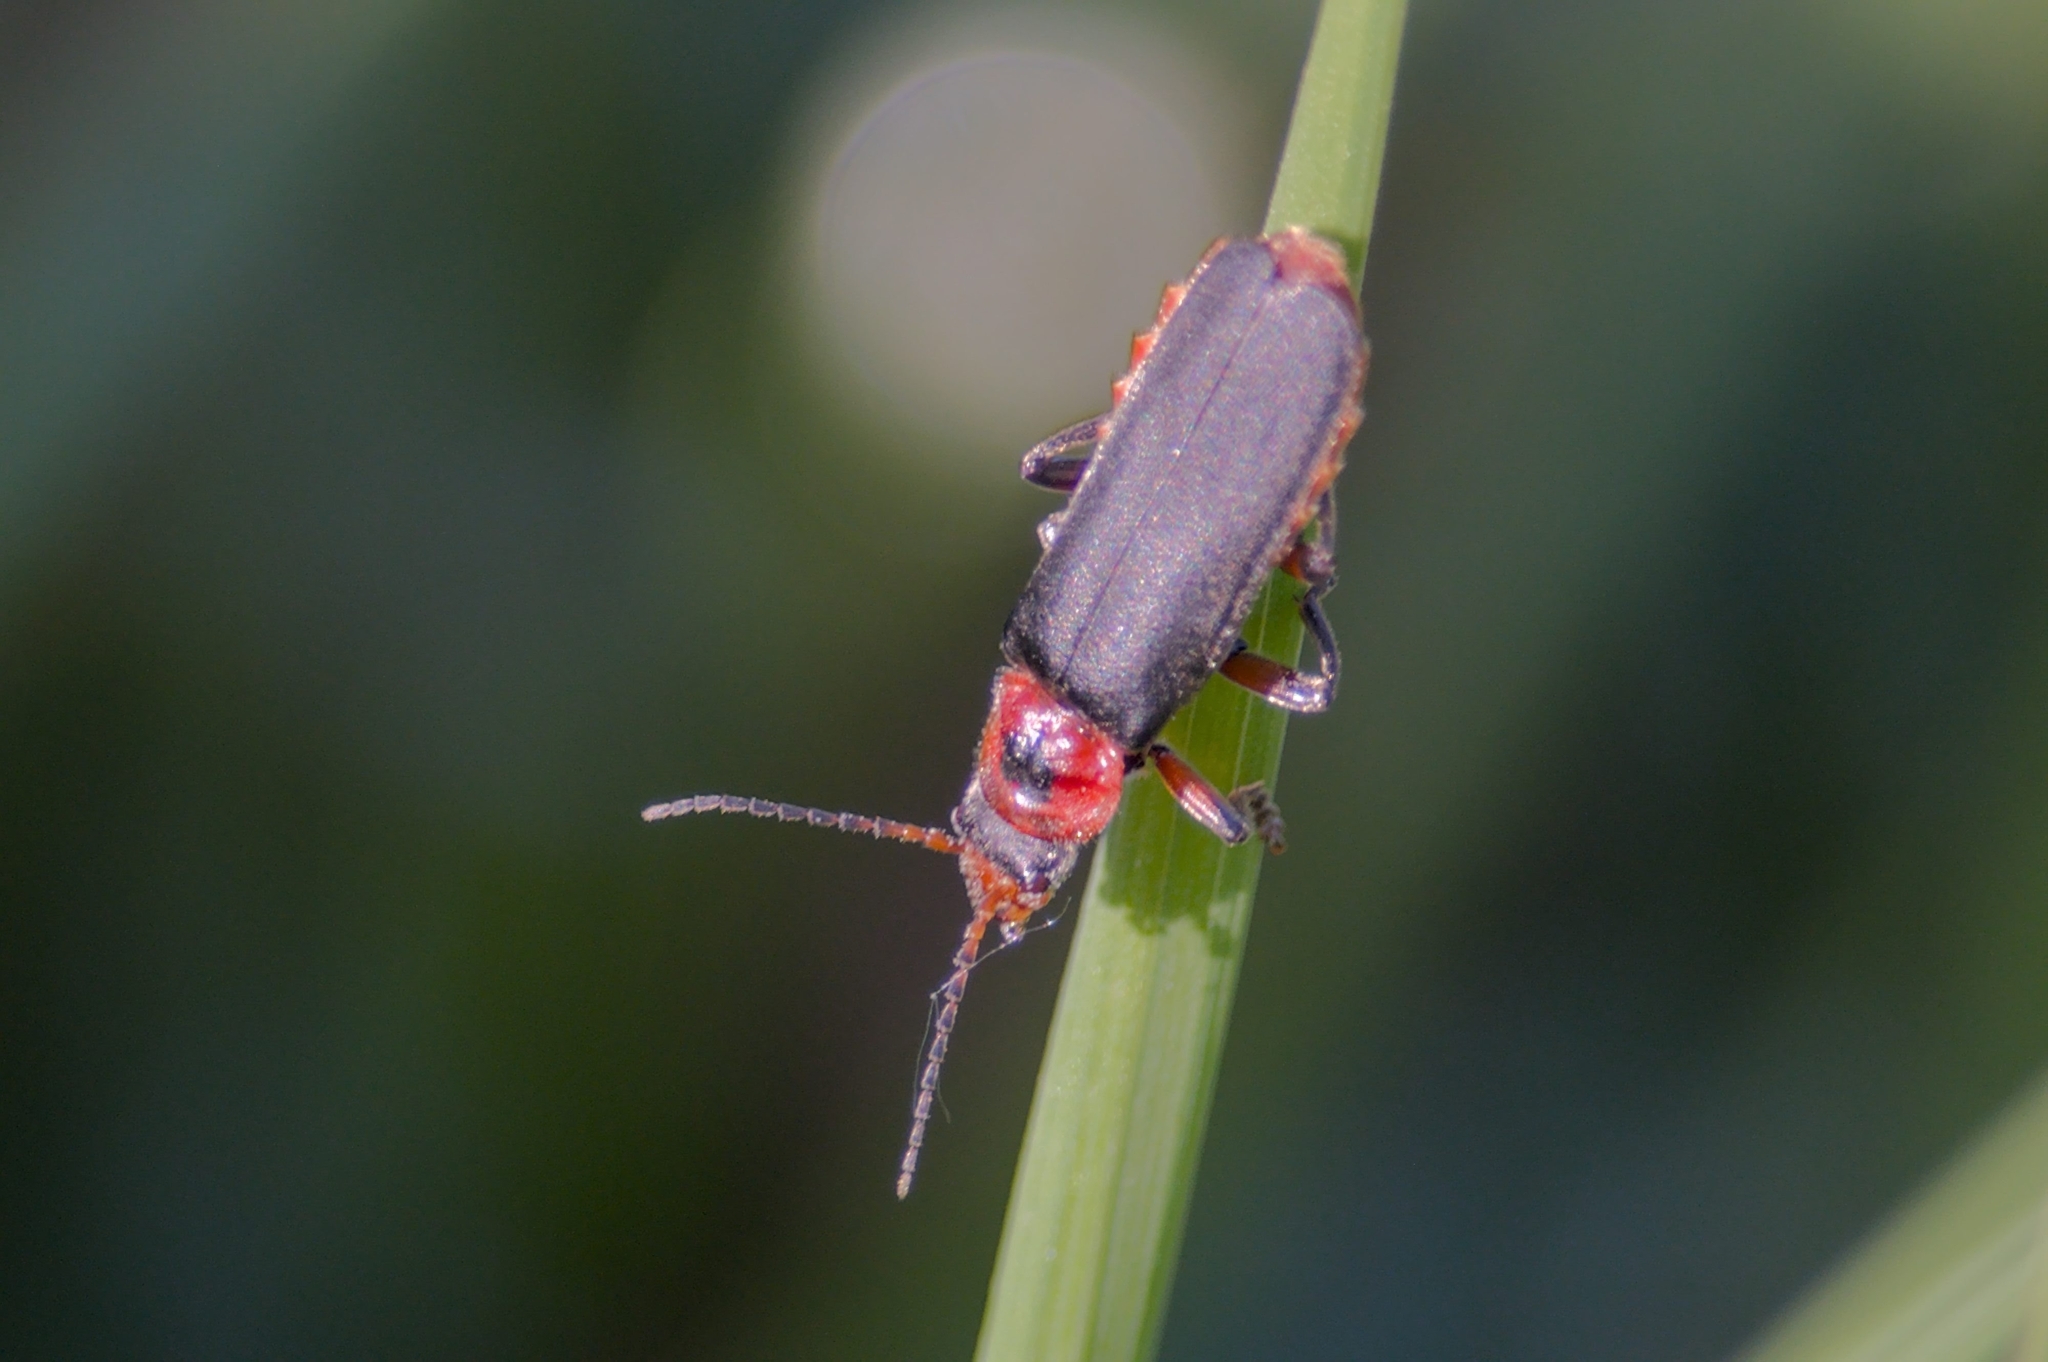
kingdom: Animalia
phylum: Arthropoda
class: Insecta
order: Coleoptera
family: Cantharidae
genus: Cantharis
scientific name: Cantharis rustica
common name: Soldier beetle
